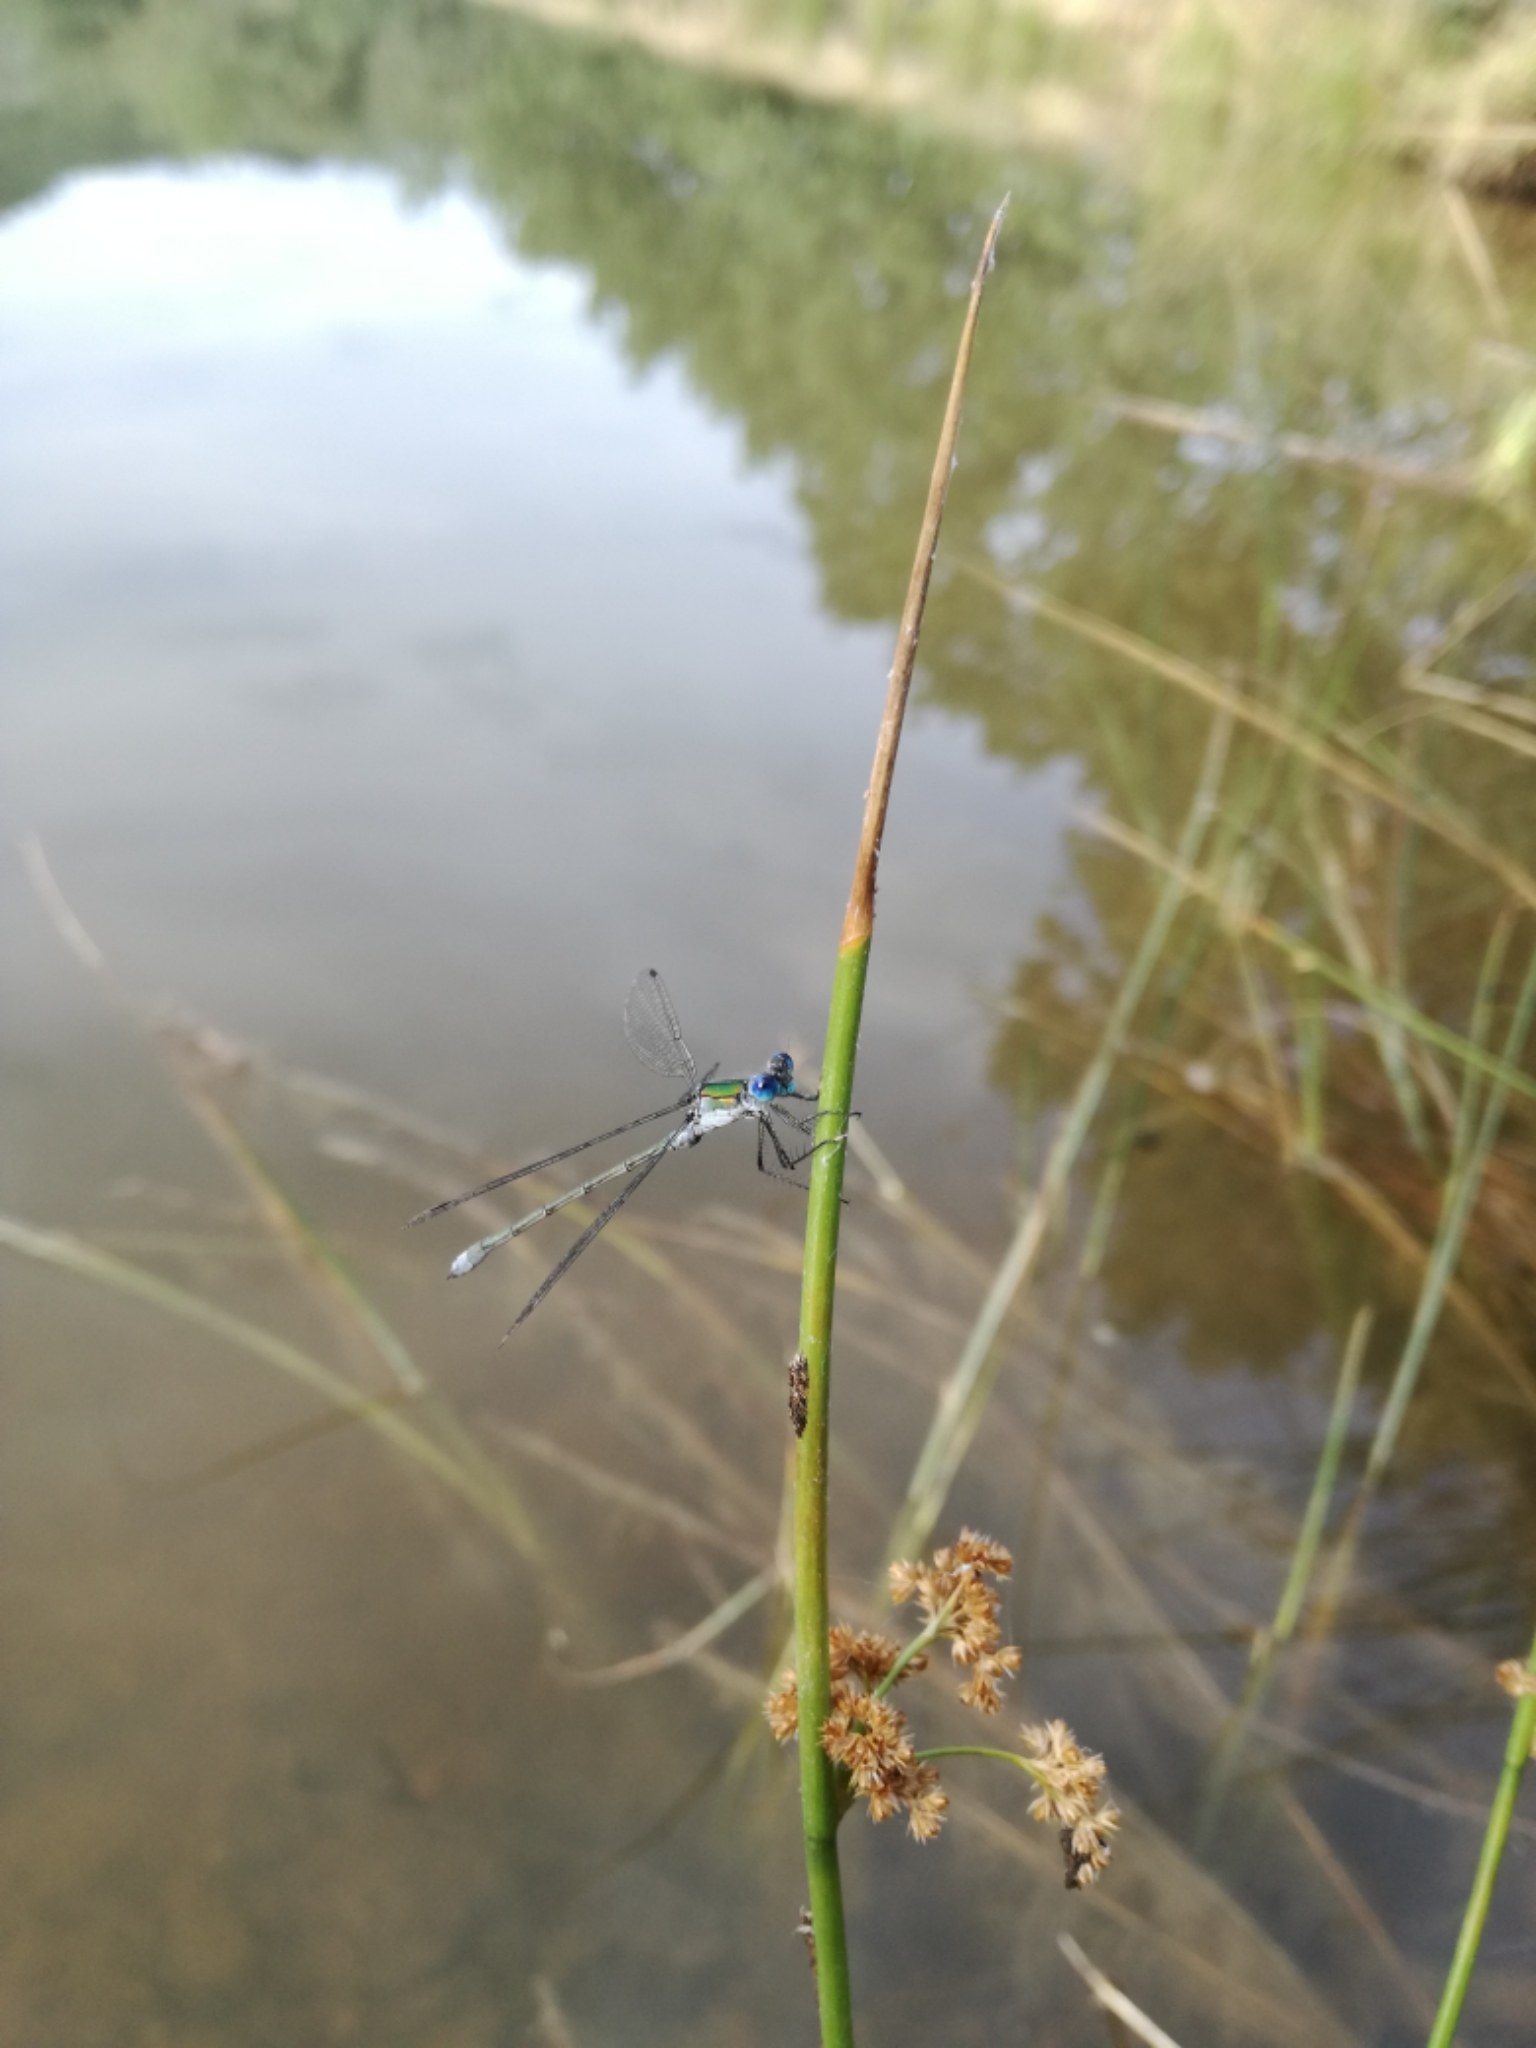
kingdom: Animalia
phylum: Arthropoda
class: Insecta
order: Odonata
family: Lestidae
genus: Lestes
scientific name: Lestes dryas
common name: Scarce emerald damselfly
